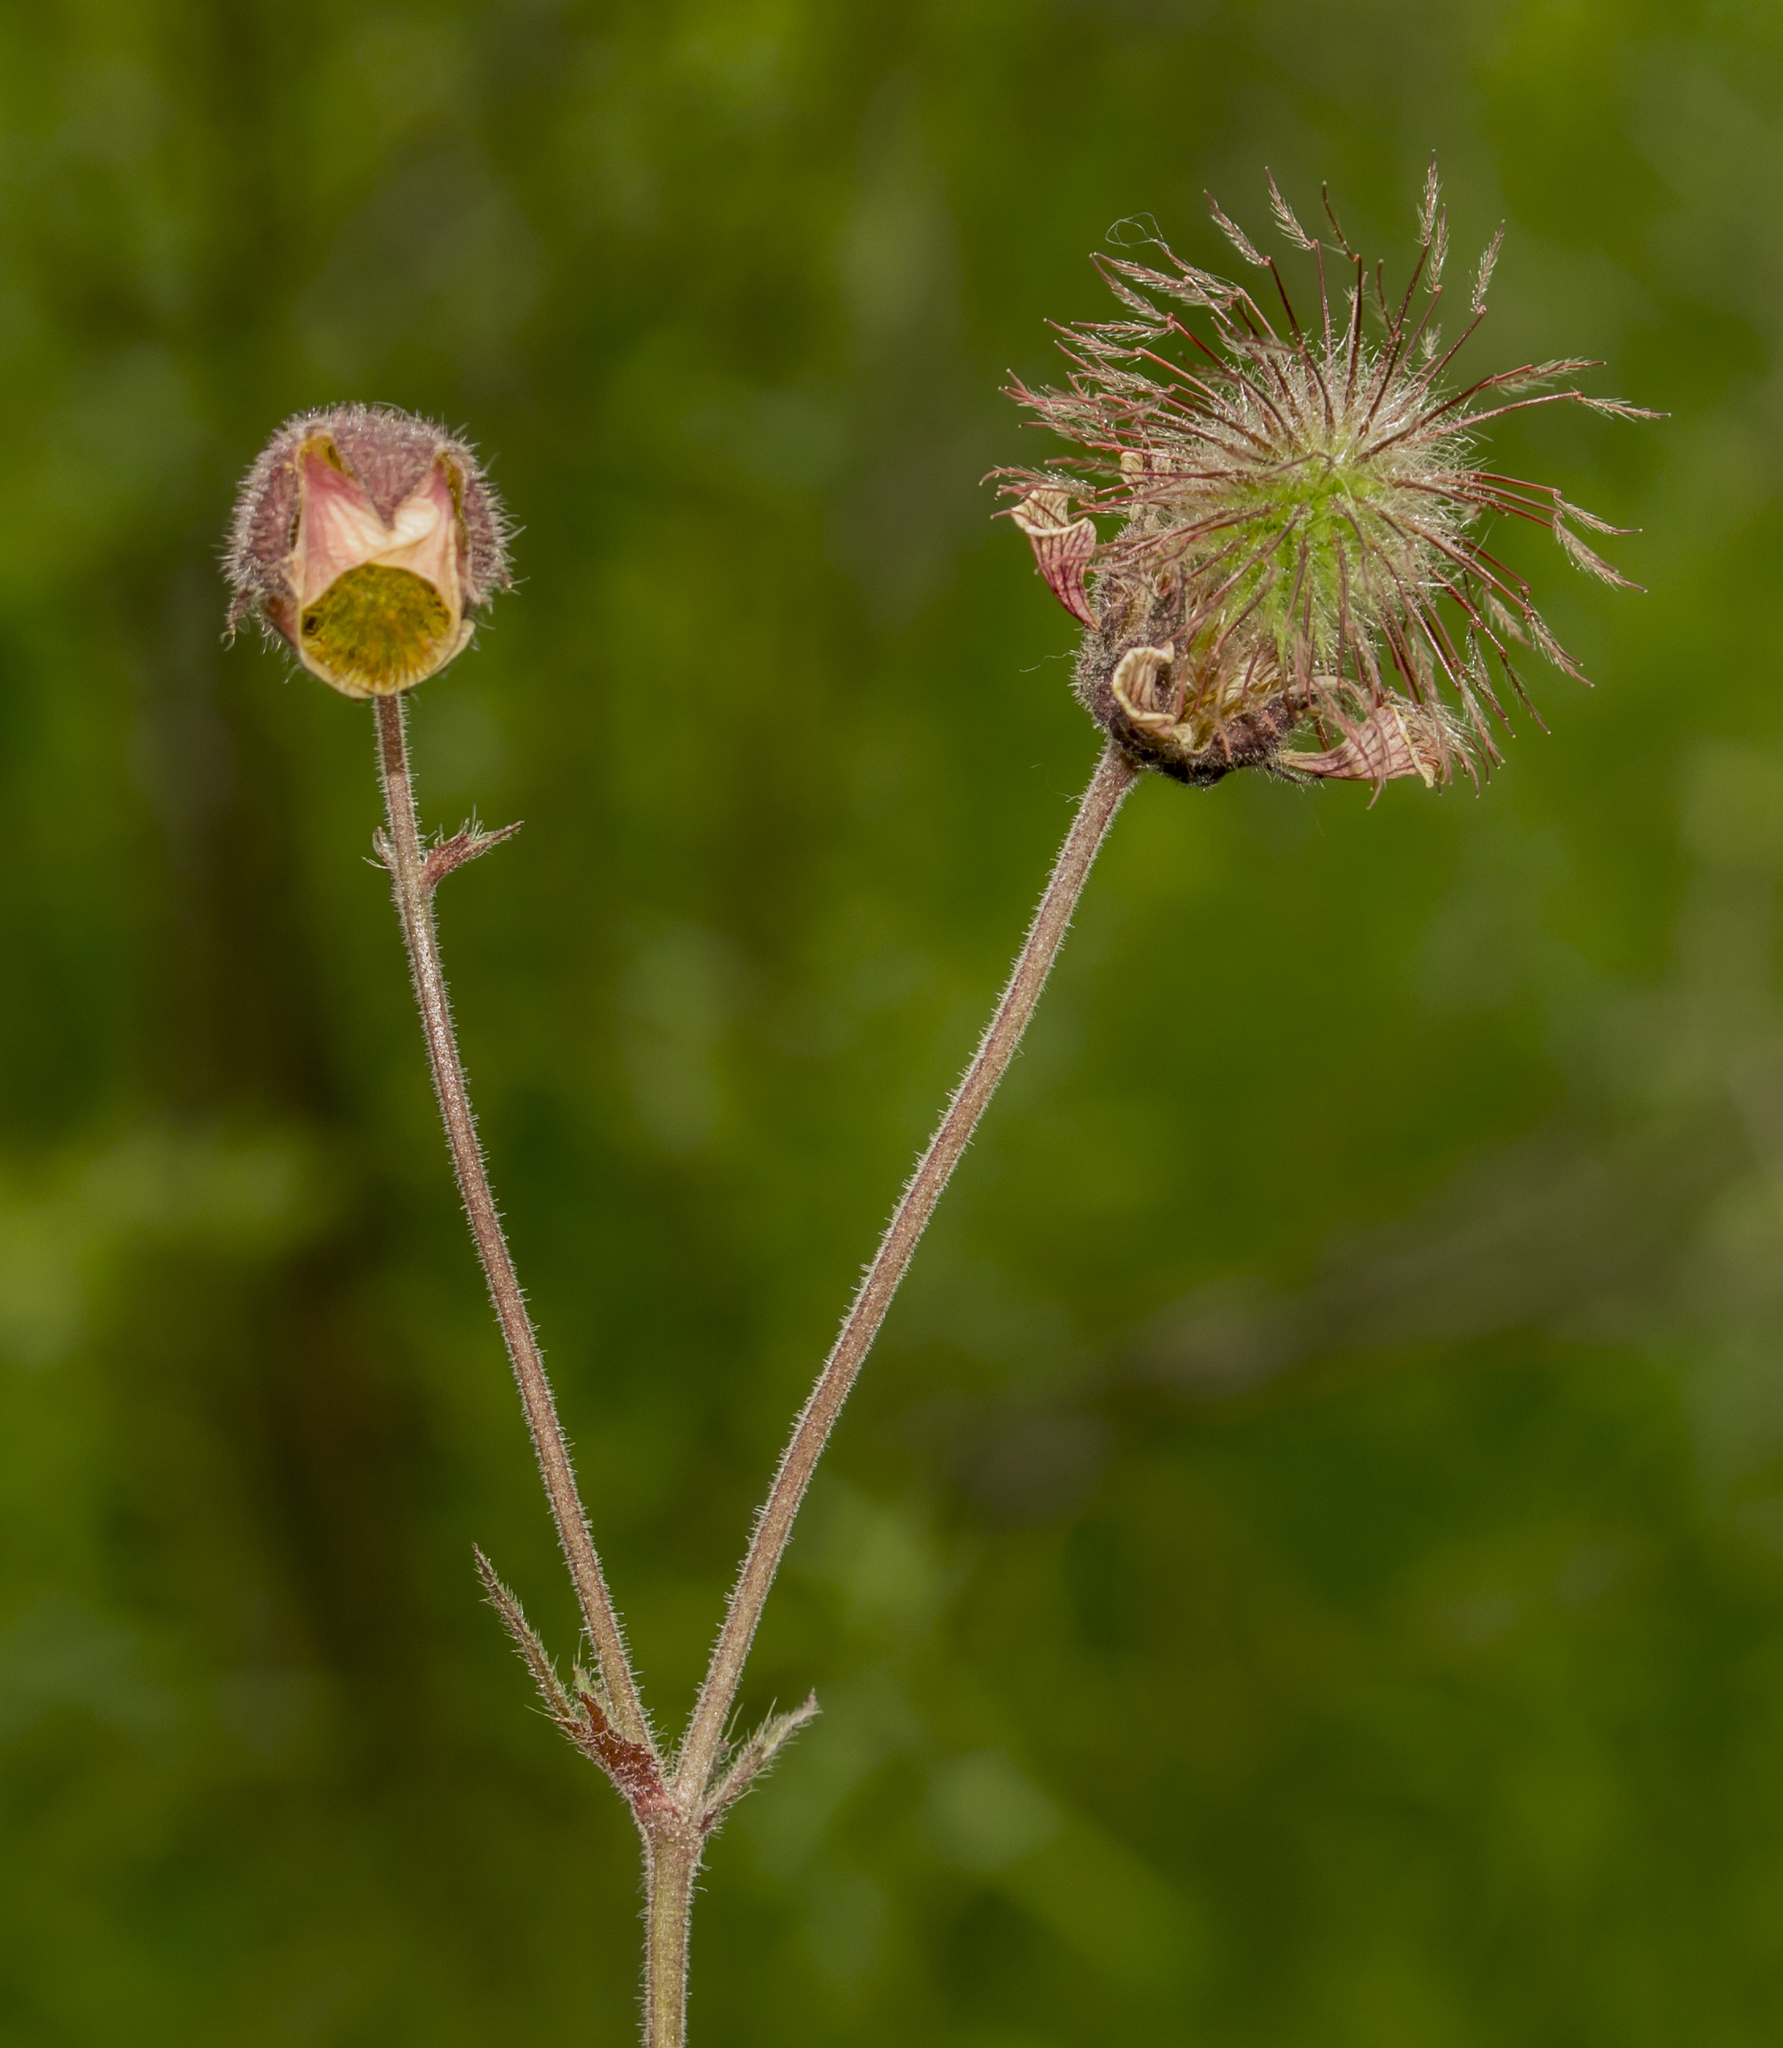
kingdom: Plantae
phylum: Tracheophyta
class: Magnoliopsida
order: Rosales
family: Rosaceae
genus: Geum
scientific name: Geum rivale
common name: Water avens
